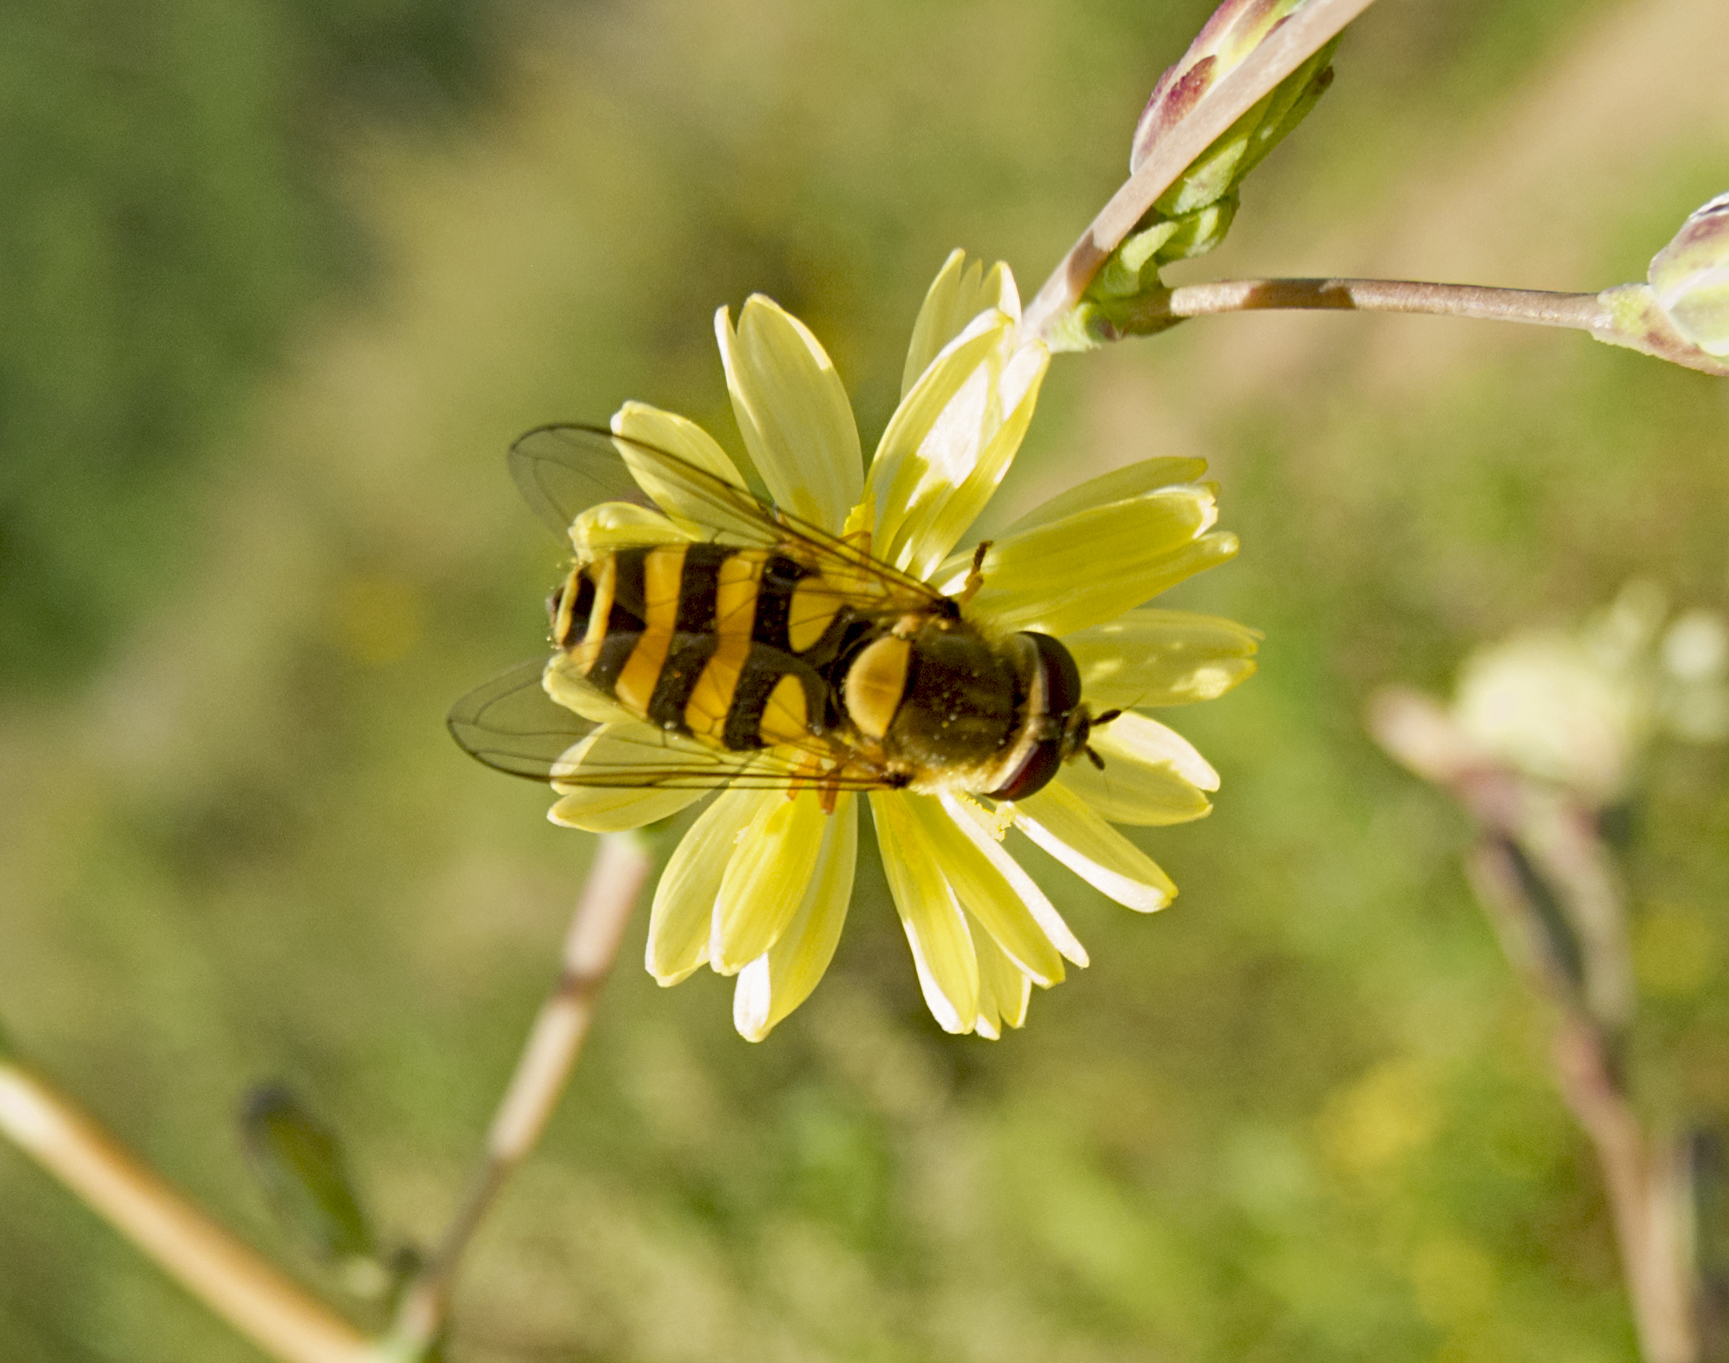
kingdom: Animalia
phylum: Arthropoda
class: Insecta
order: Diptera
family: Syrphidae
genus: Syrphus
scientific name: Syrphus
